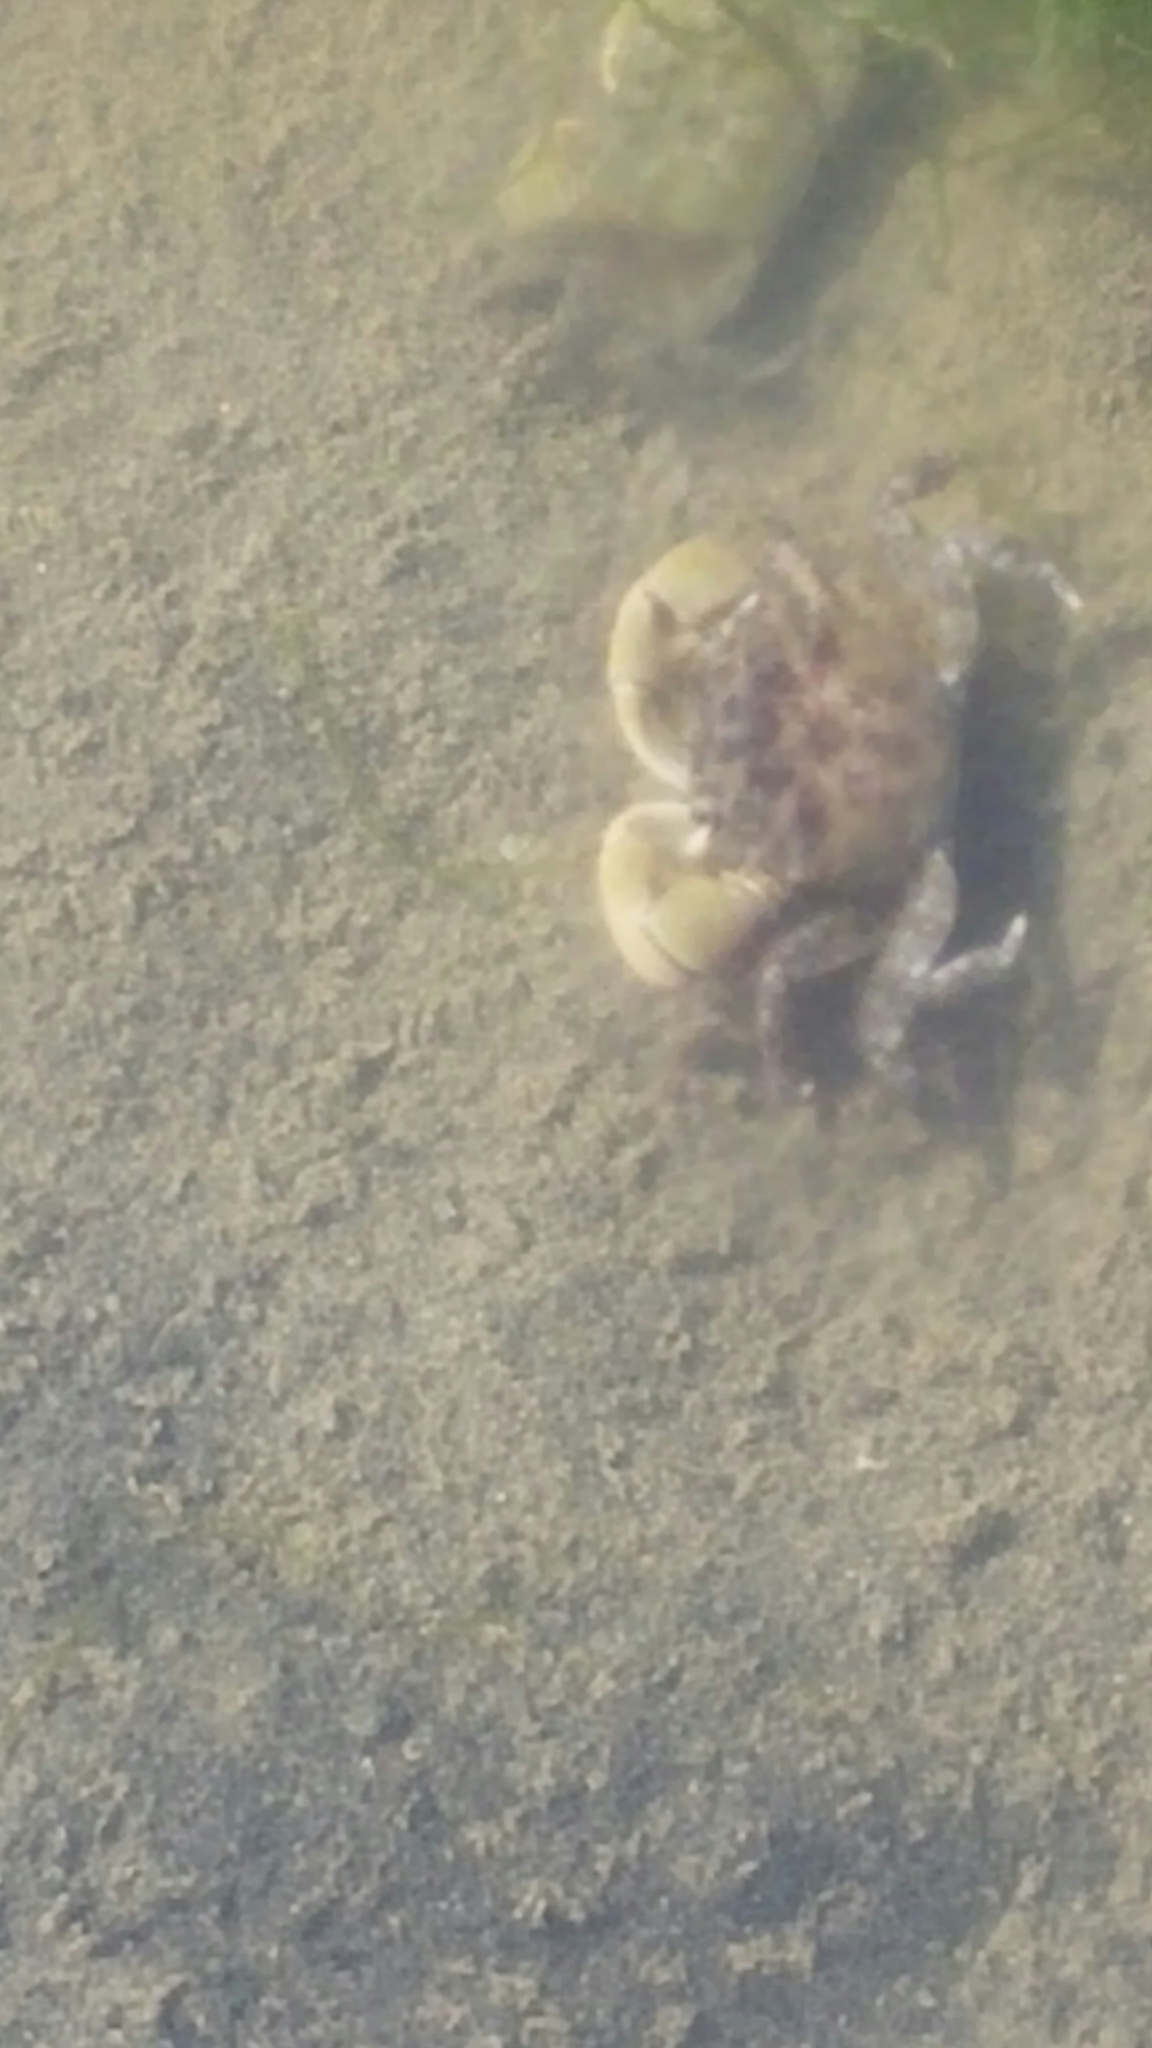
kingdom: Animalia
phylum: Arthropoda
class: Malacostraca
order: Decapoda
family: Varunidae
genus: Hemigrapsus
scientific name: Hemigrapsus oregonensis
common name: Yellow shore crab
